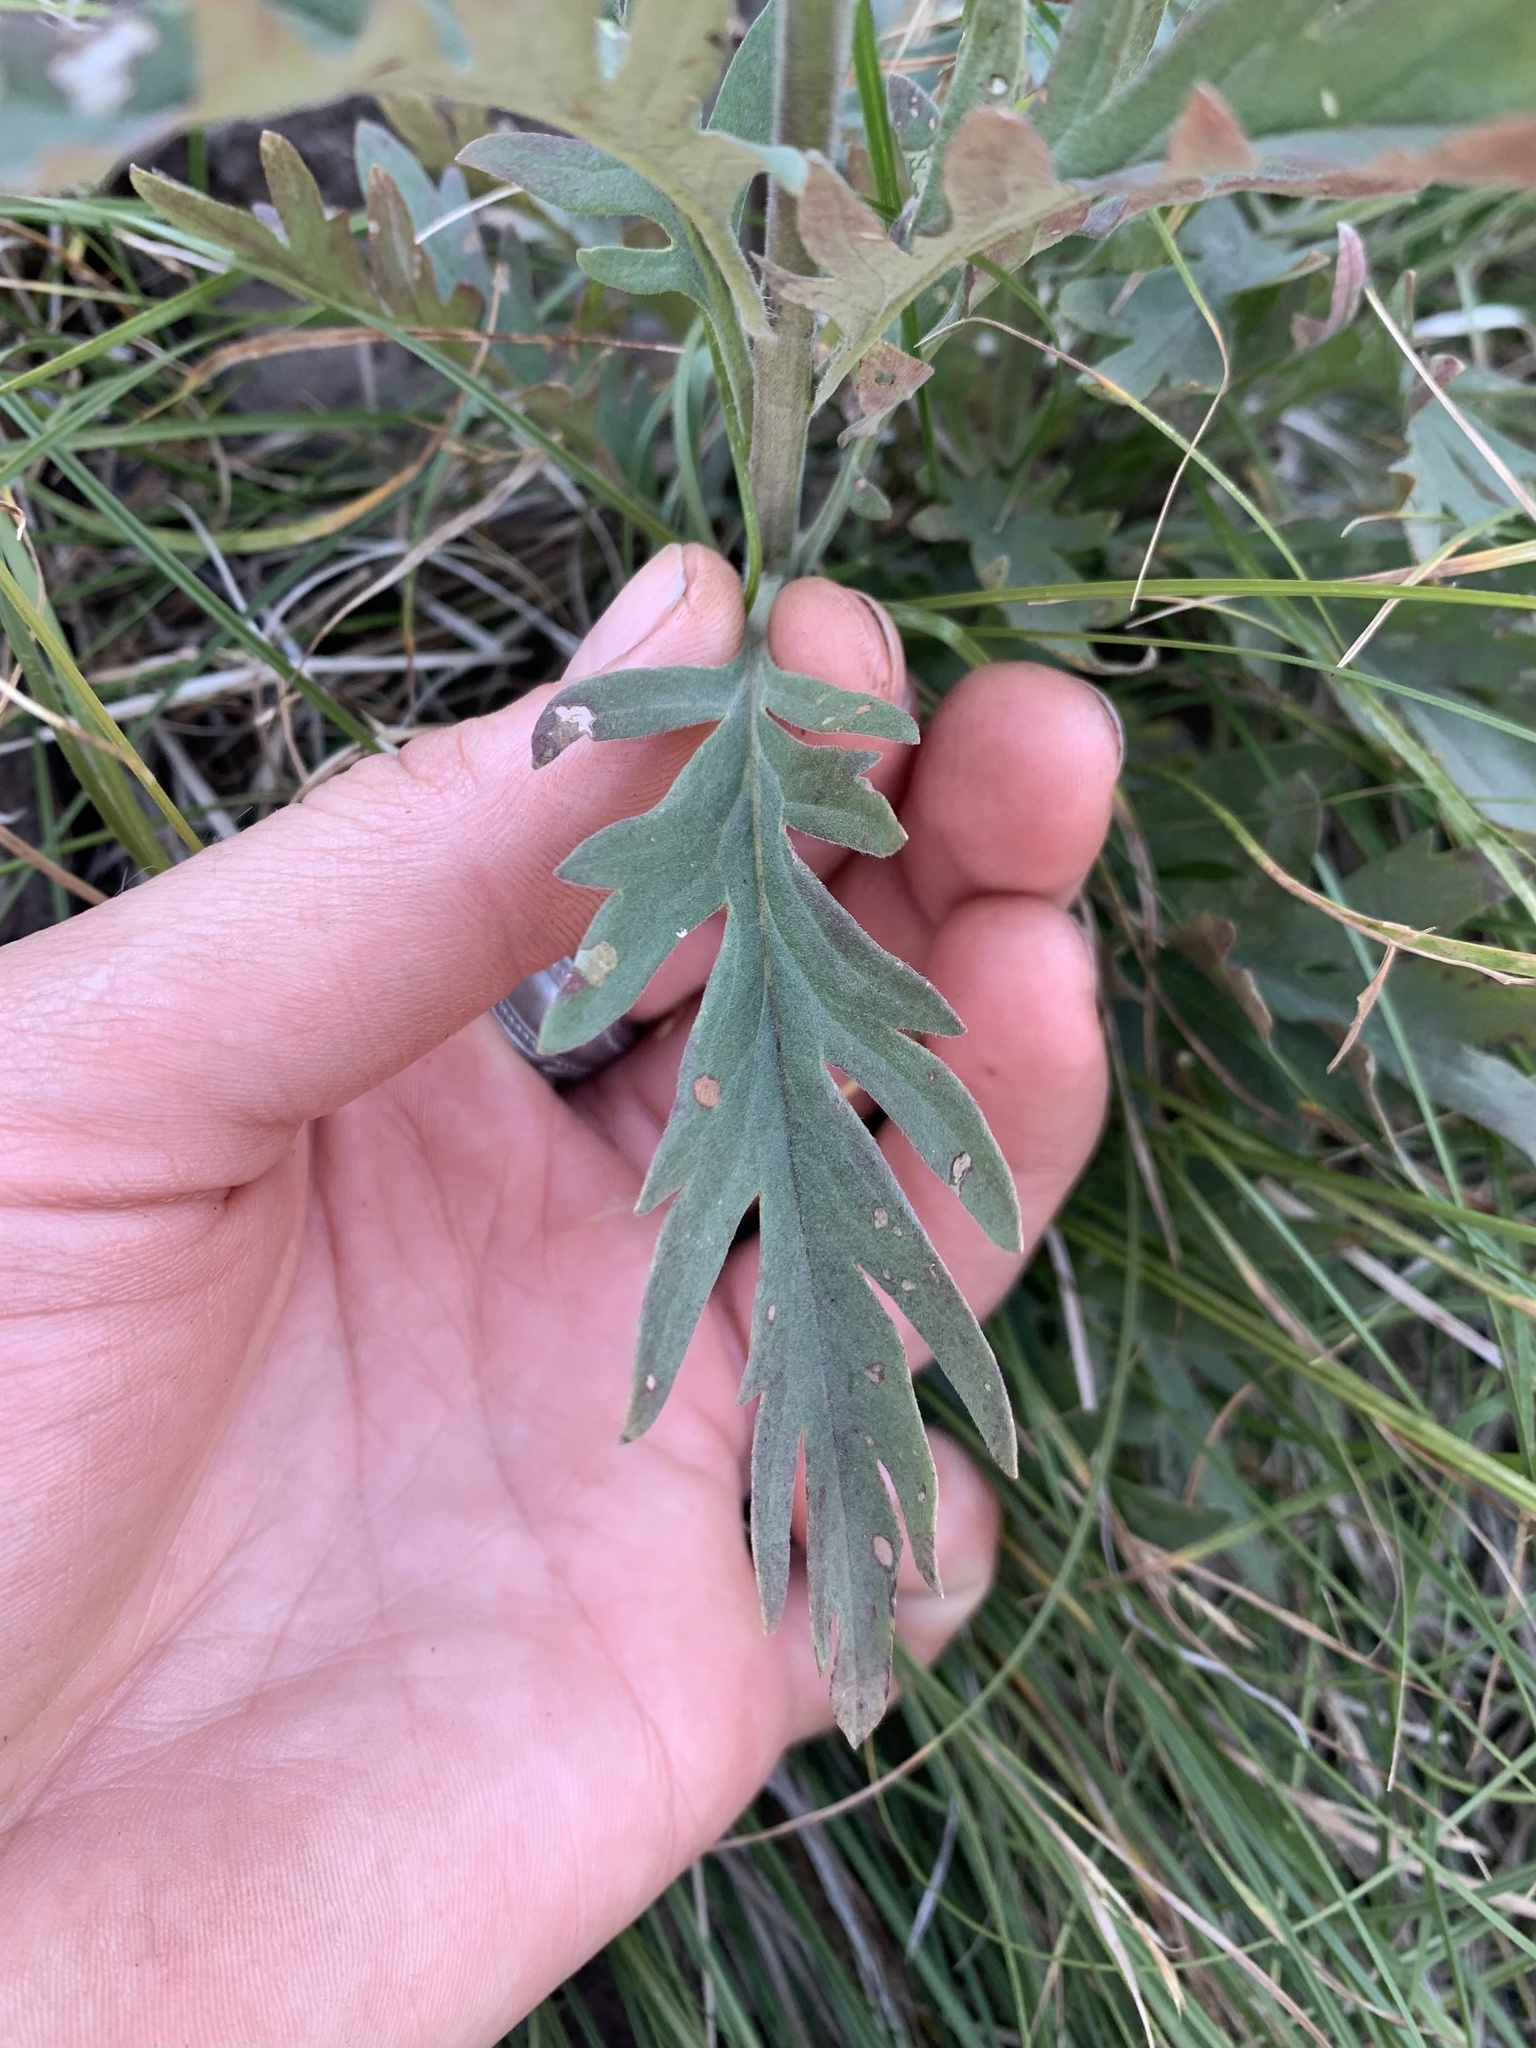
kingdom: Plantae
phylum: Tracheophyta
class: Magnoliopsida
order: Boraginales
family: Hydrophyllaceae
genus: Phacelia
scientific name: Phacelia sericea
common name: Silky phacelia
